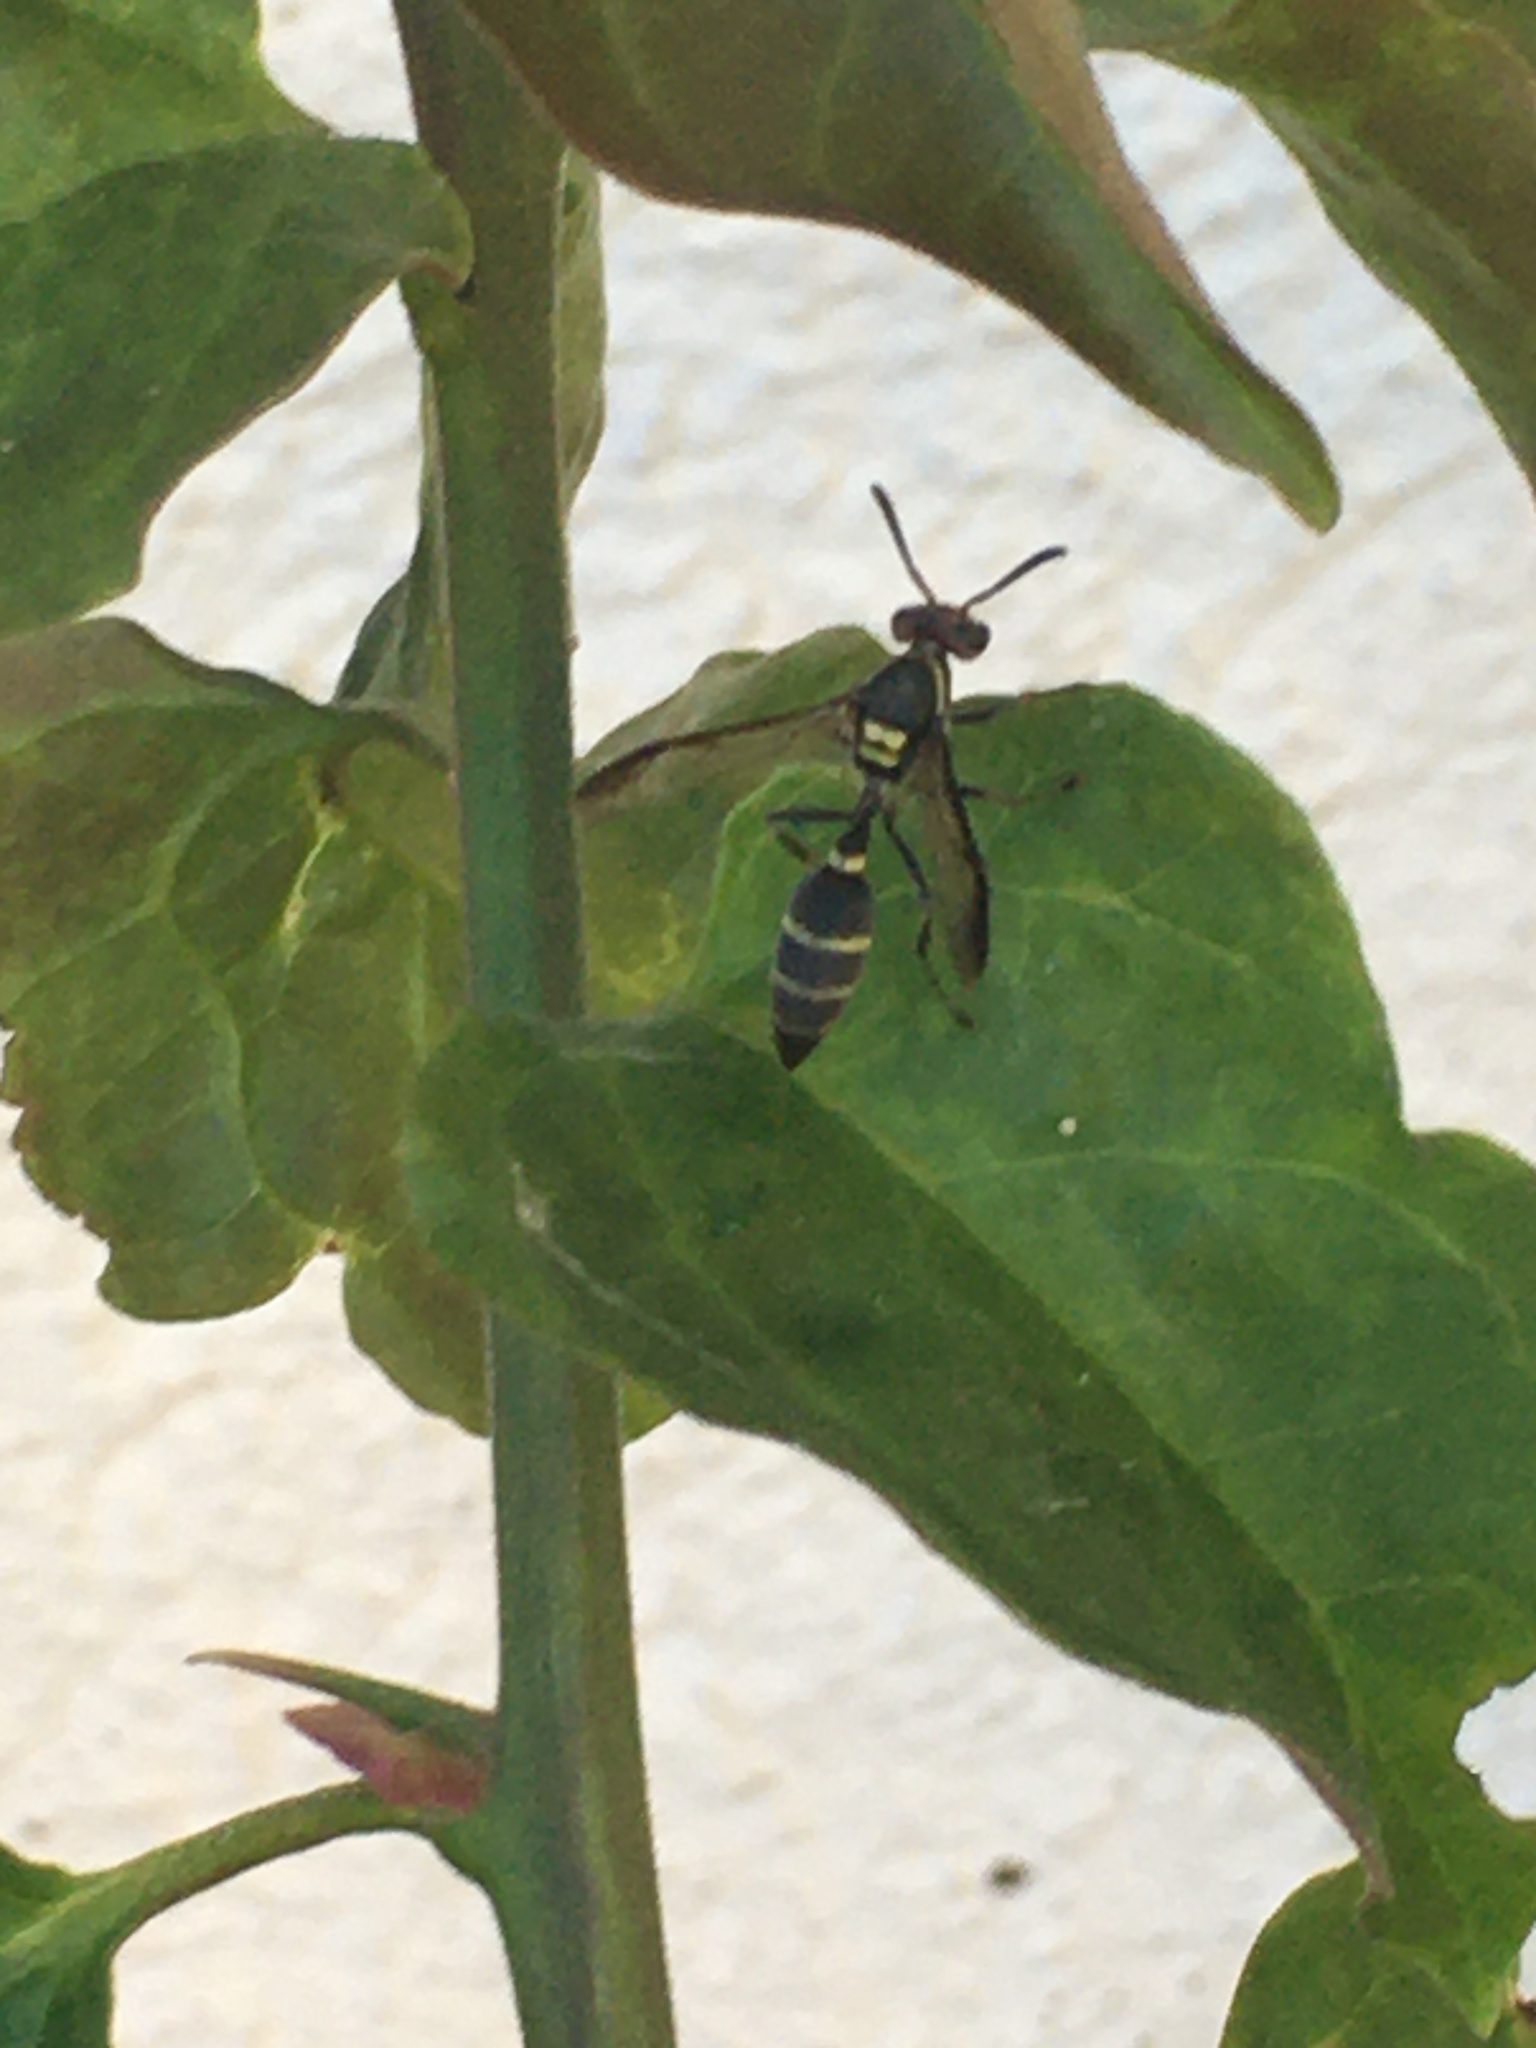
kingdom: Animalia
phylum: Arthropoda
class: Insecta
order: Hymenoptera
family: Eumenidae
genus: Polybia
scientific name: Polybia ruficeps
